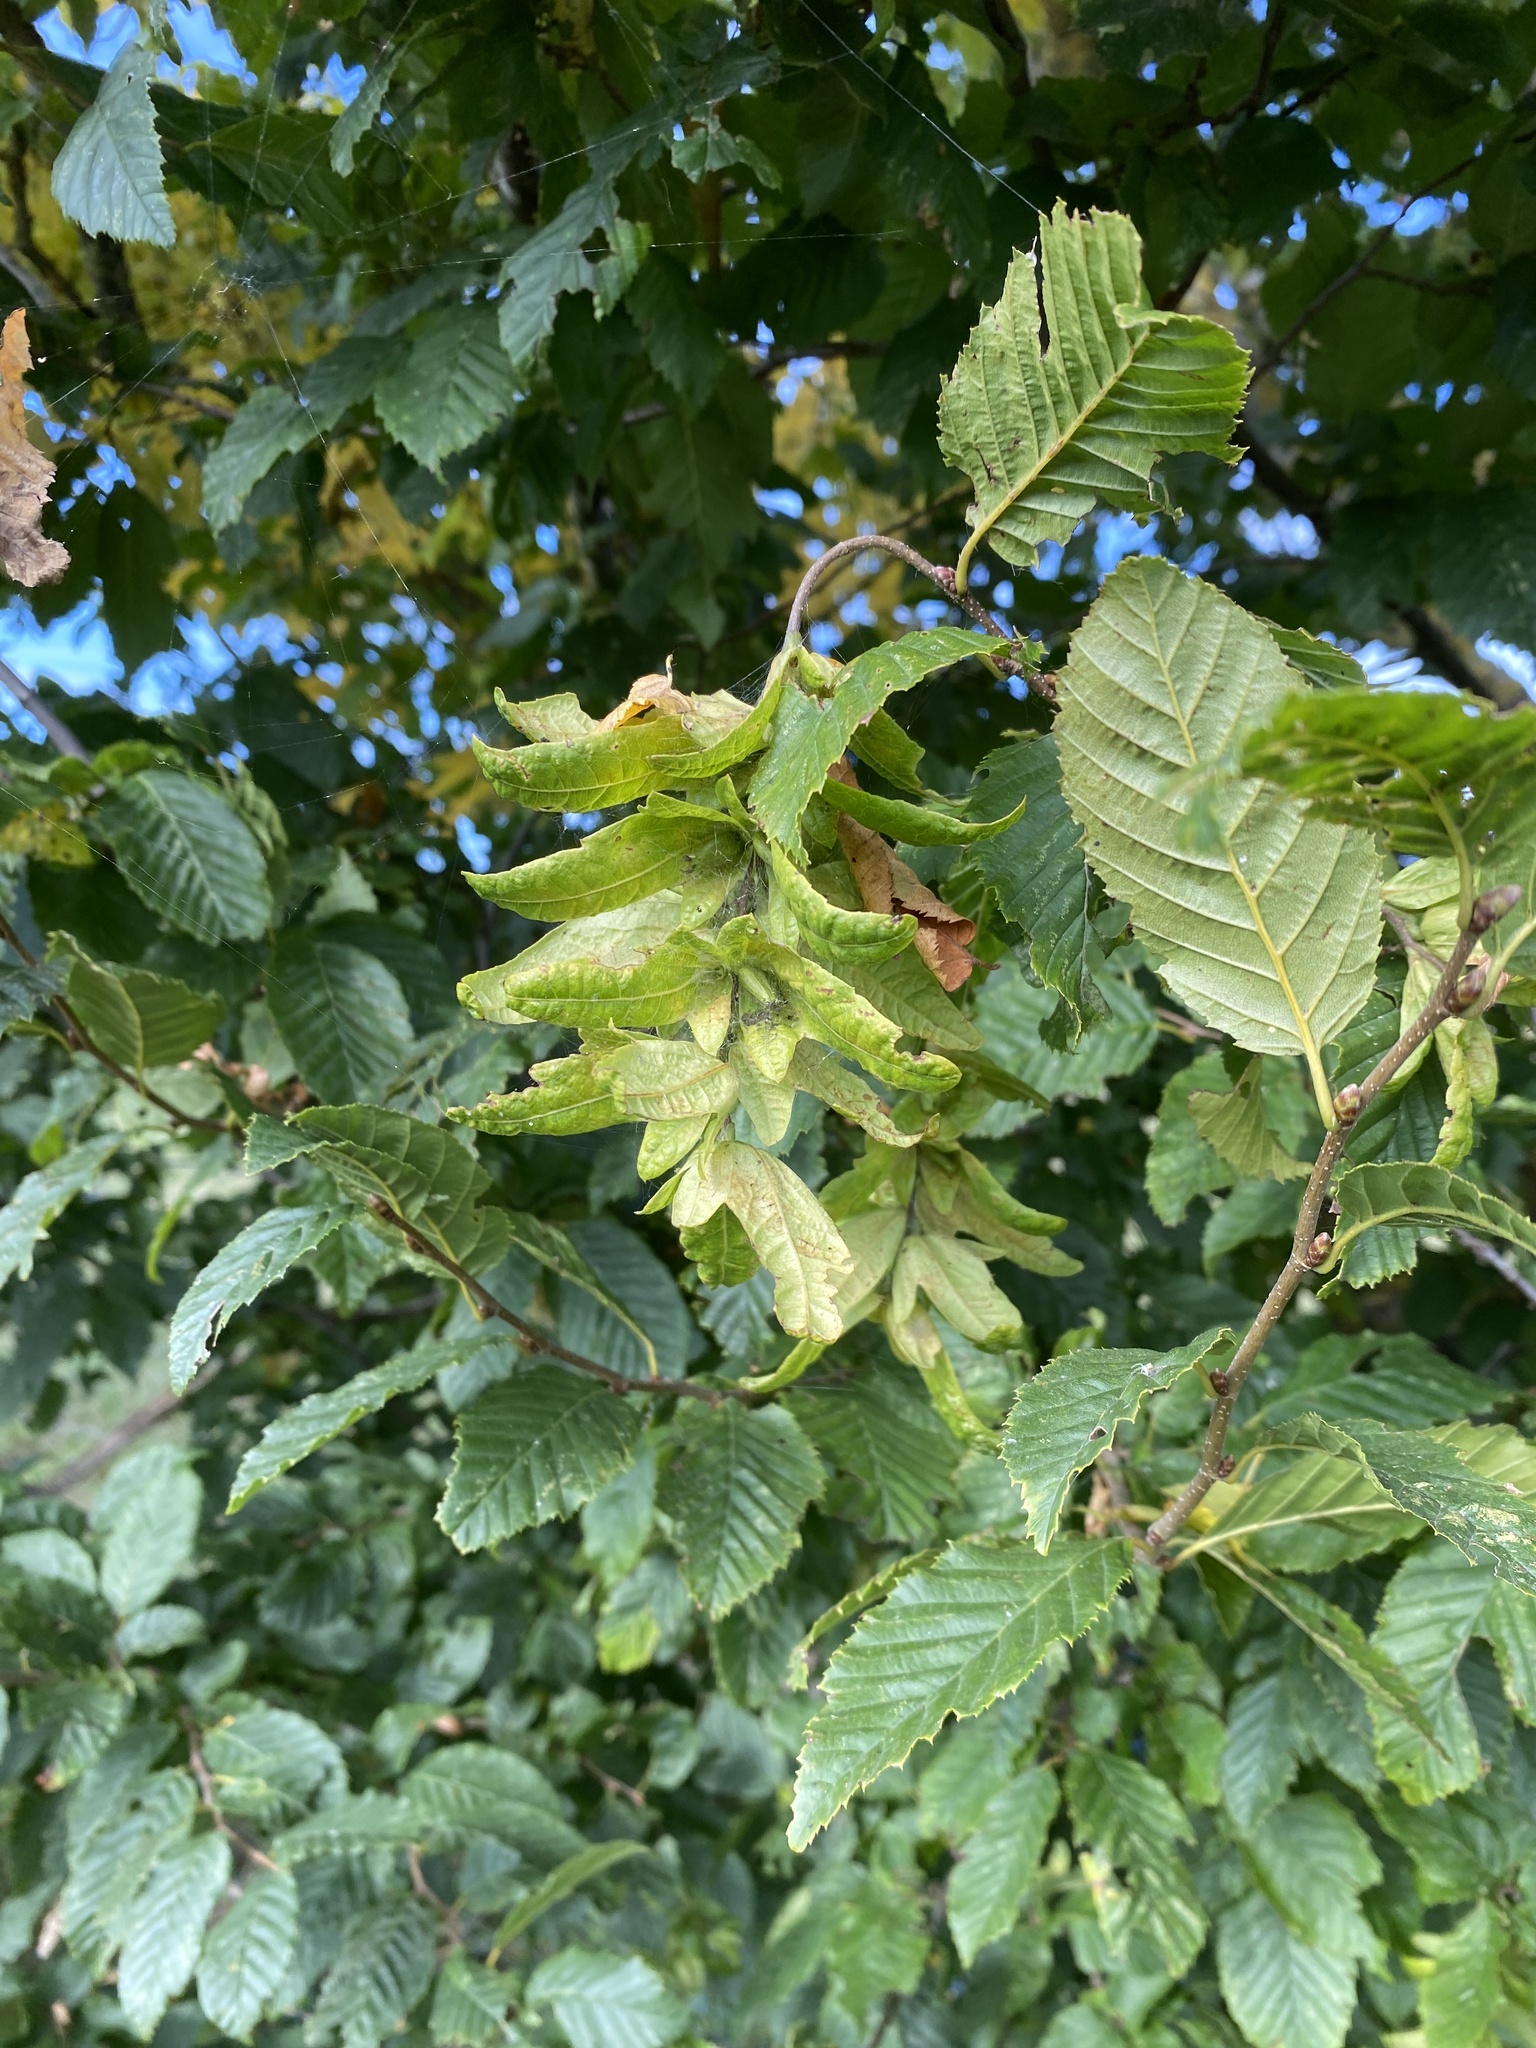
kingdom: Plantae
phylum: Tracheophyta
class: Magnoliopsida
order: Fagales
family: Betulaceae
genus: Carpinus
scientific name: Carpinus betulus
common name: Hornbeam
